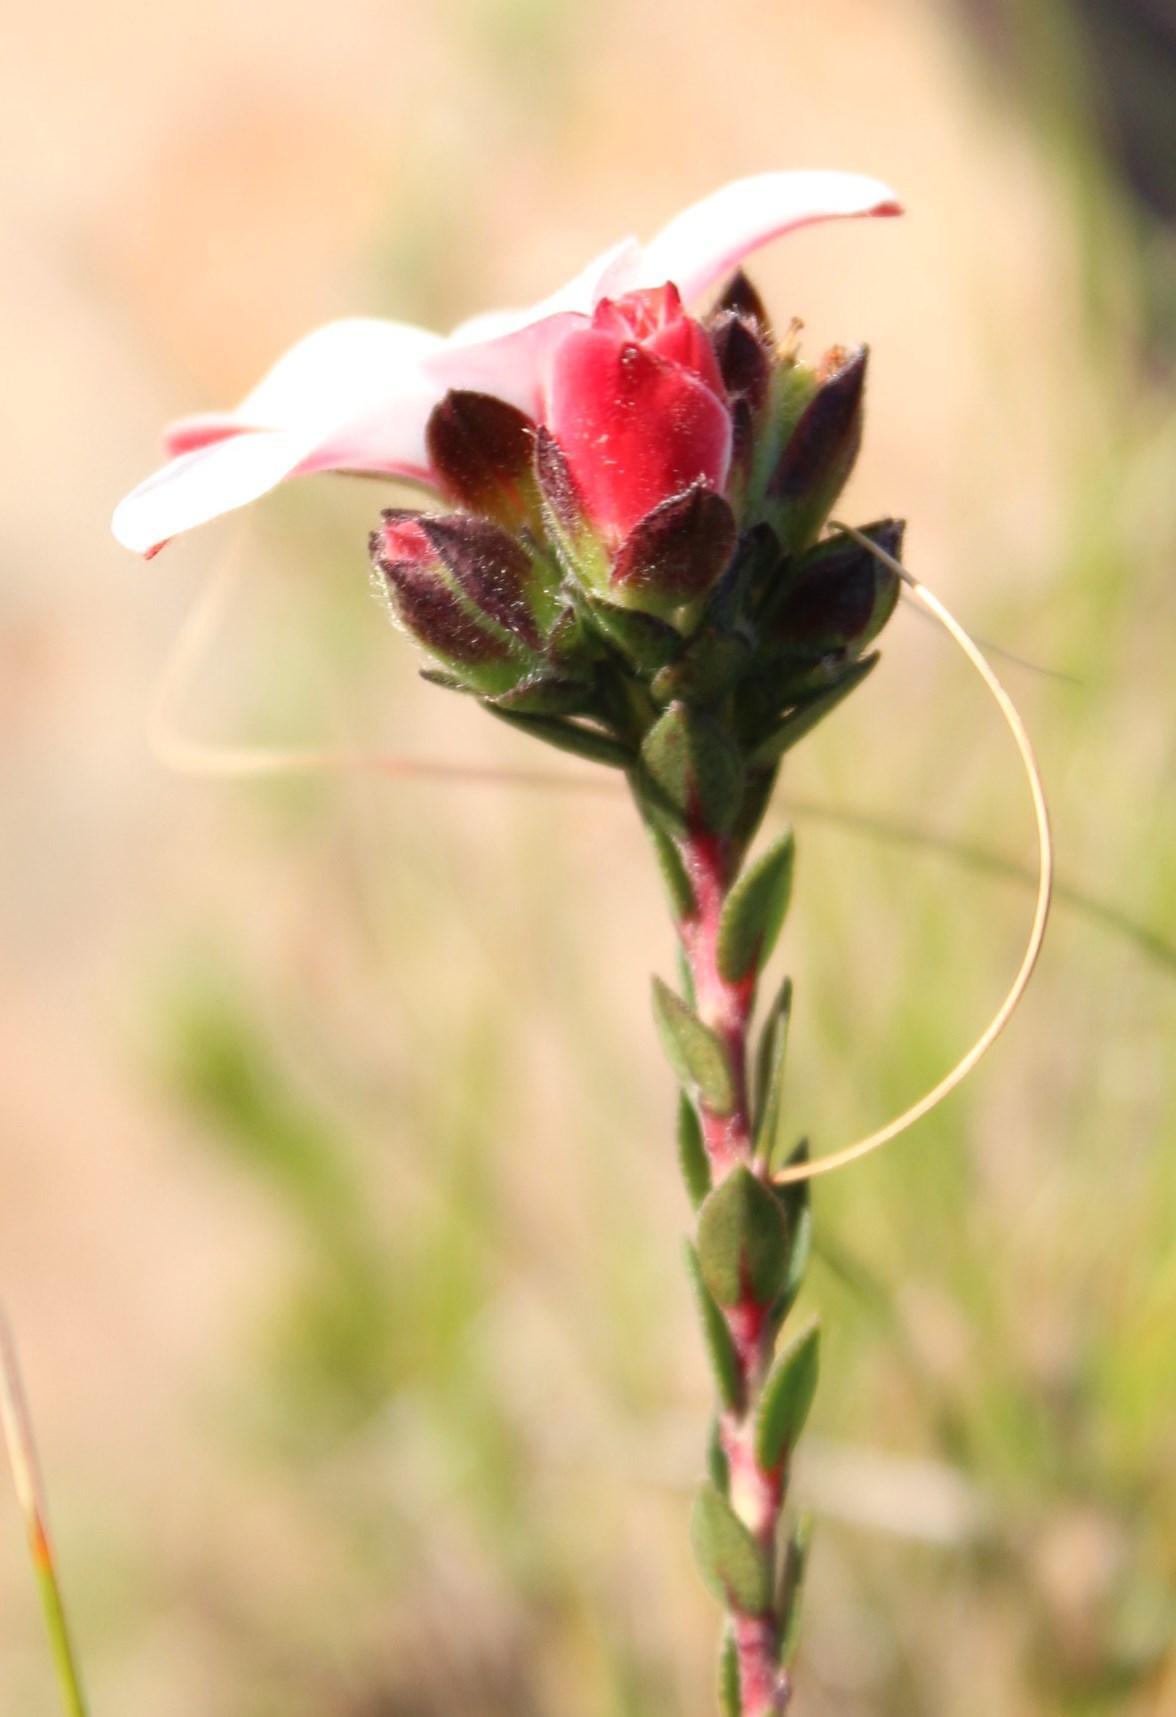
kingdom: Plantae
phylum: Tracheophyta
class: Magnoliopsida
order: Sapindales
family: Rutaceae
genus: Adenandra
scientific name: Adenandra villosa
